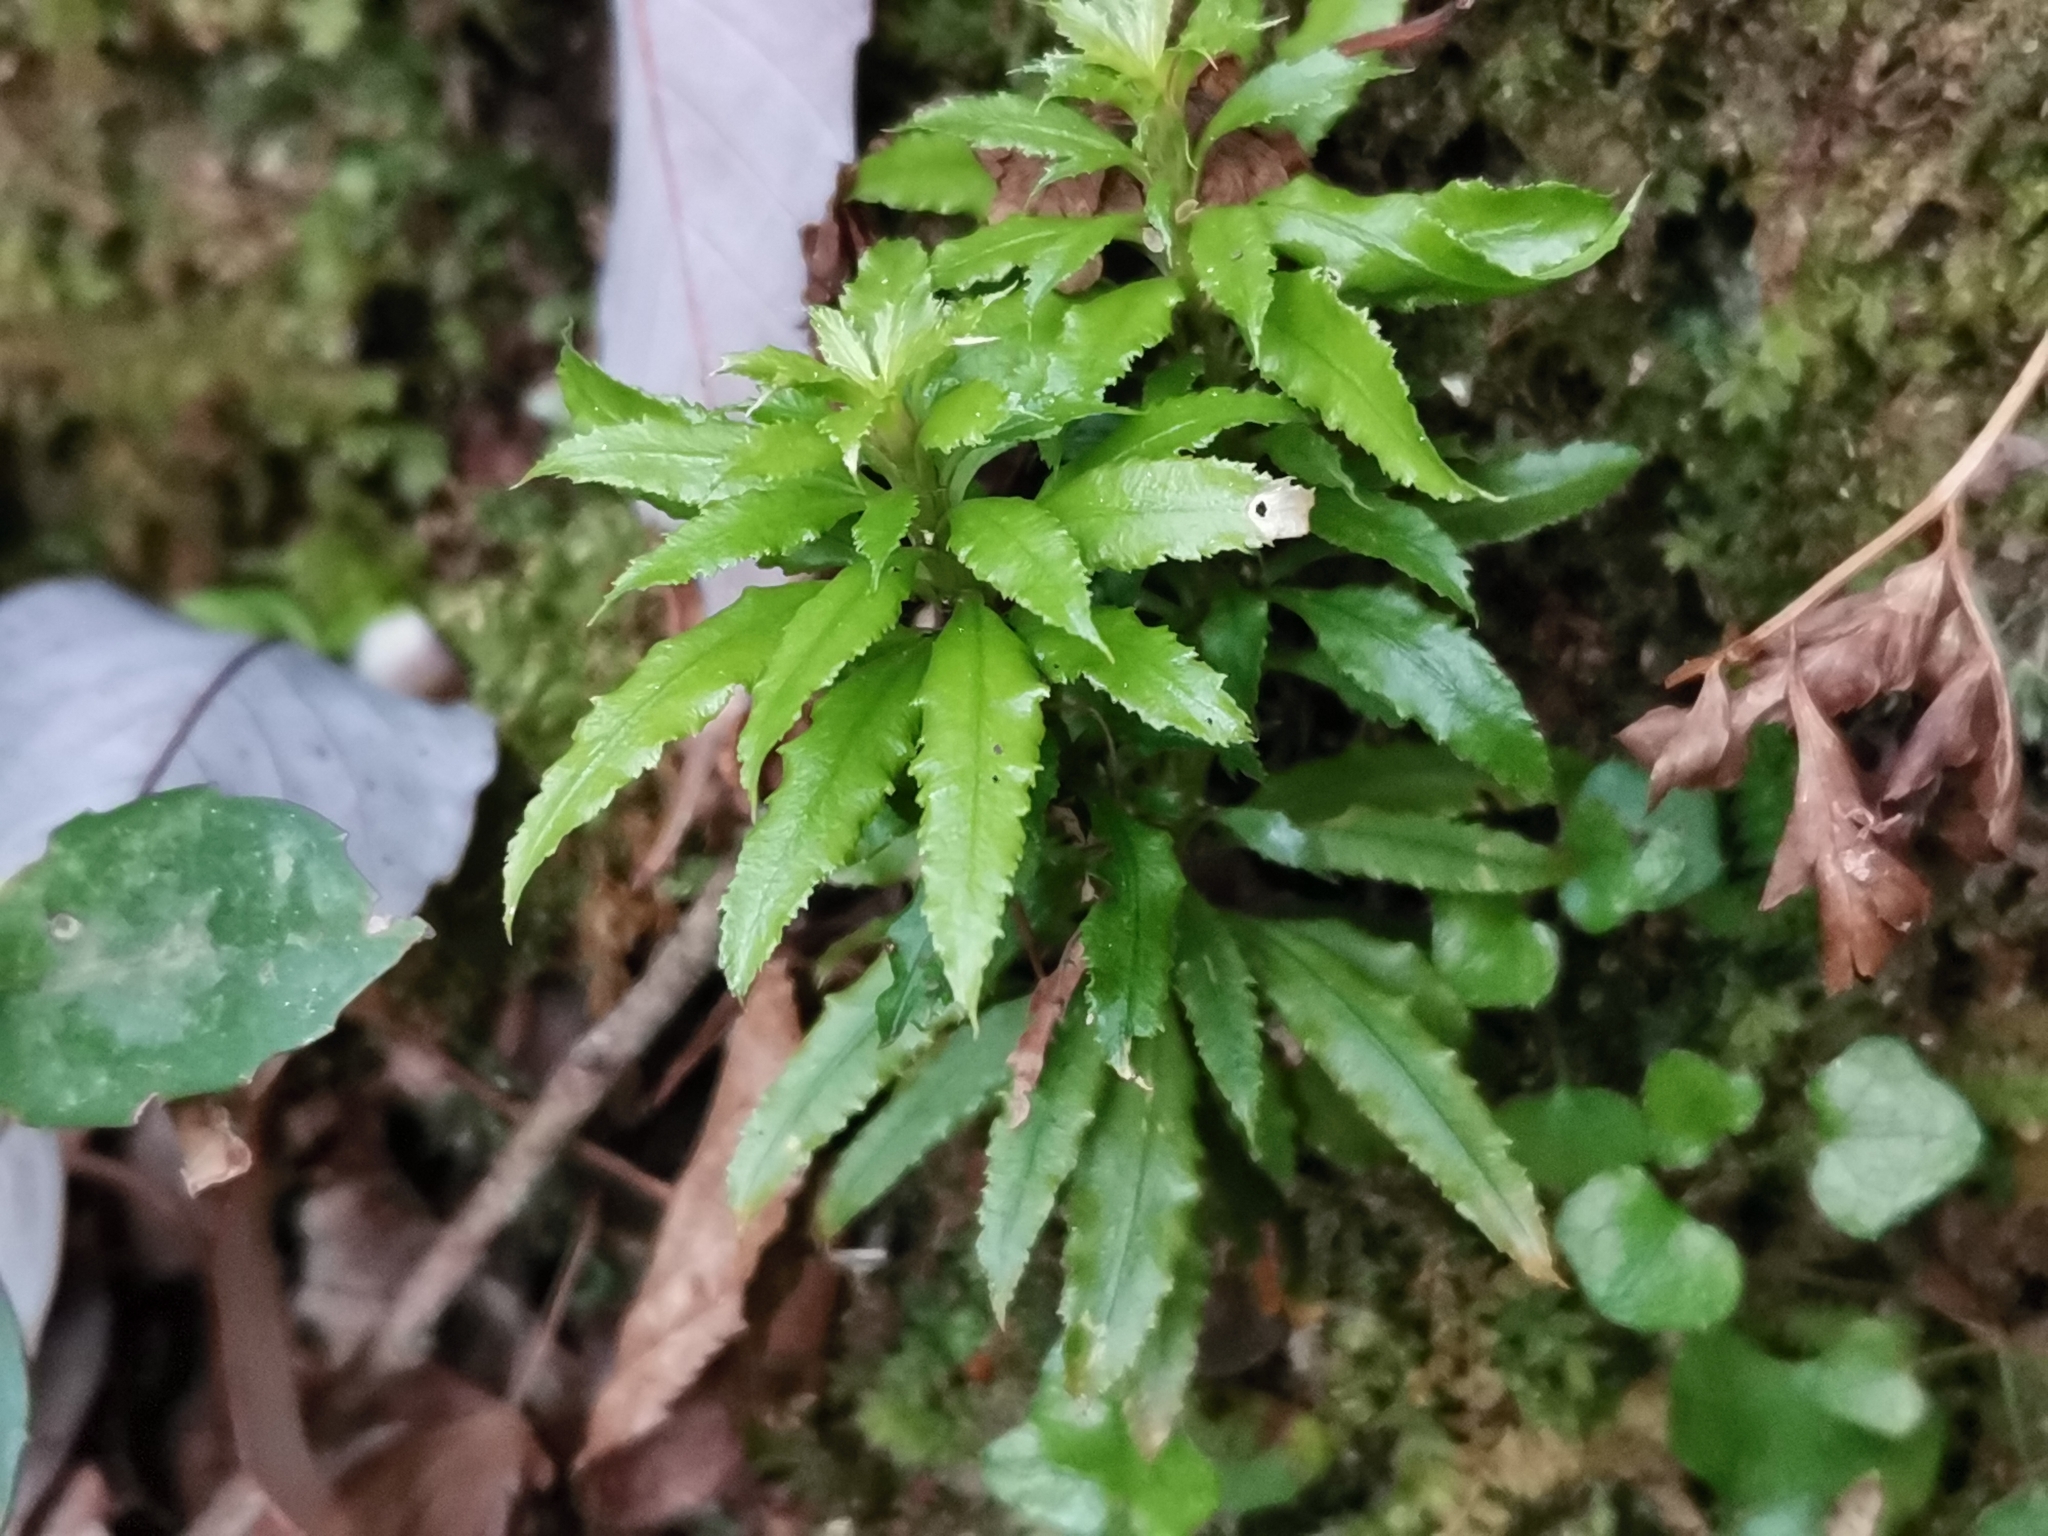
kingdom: Plantae
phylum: Tracheophyta
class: Lycopodiopsida
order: Lycopodiales
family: Lycopodiaceae
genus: Huperzia
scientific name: Huperzia serrata
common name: Toothed club-moss
